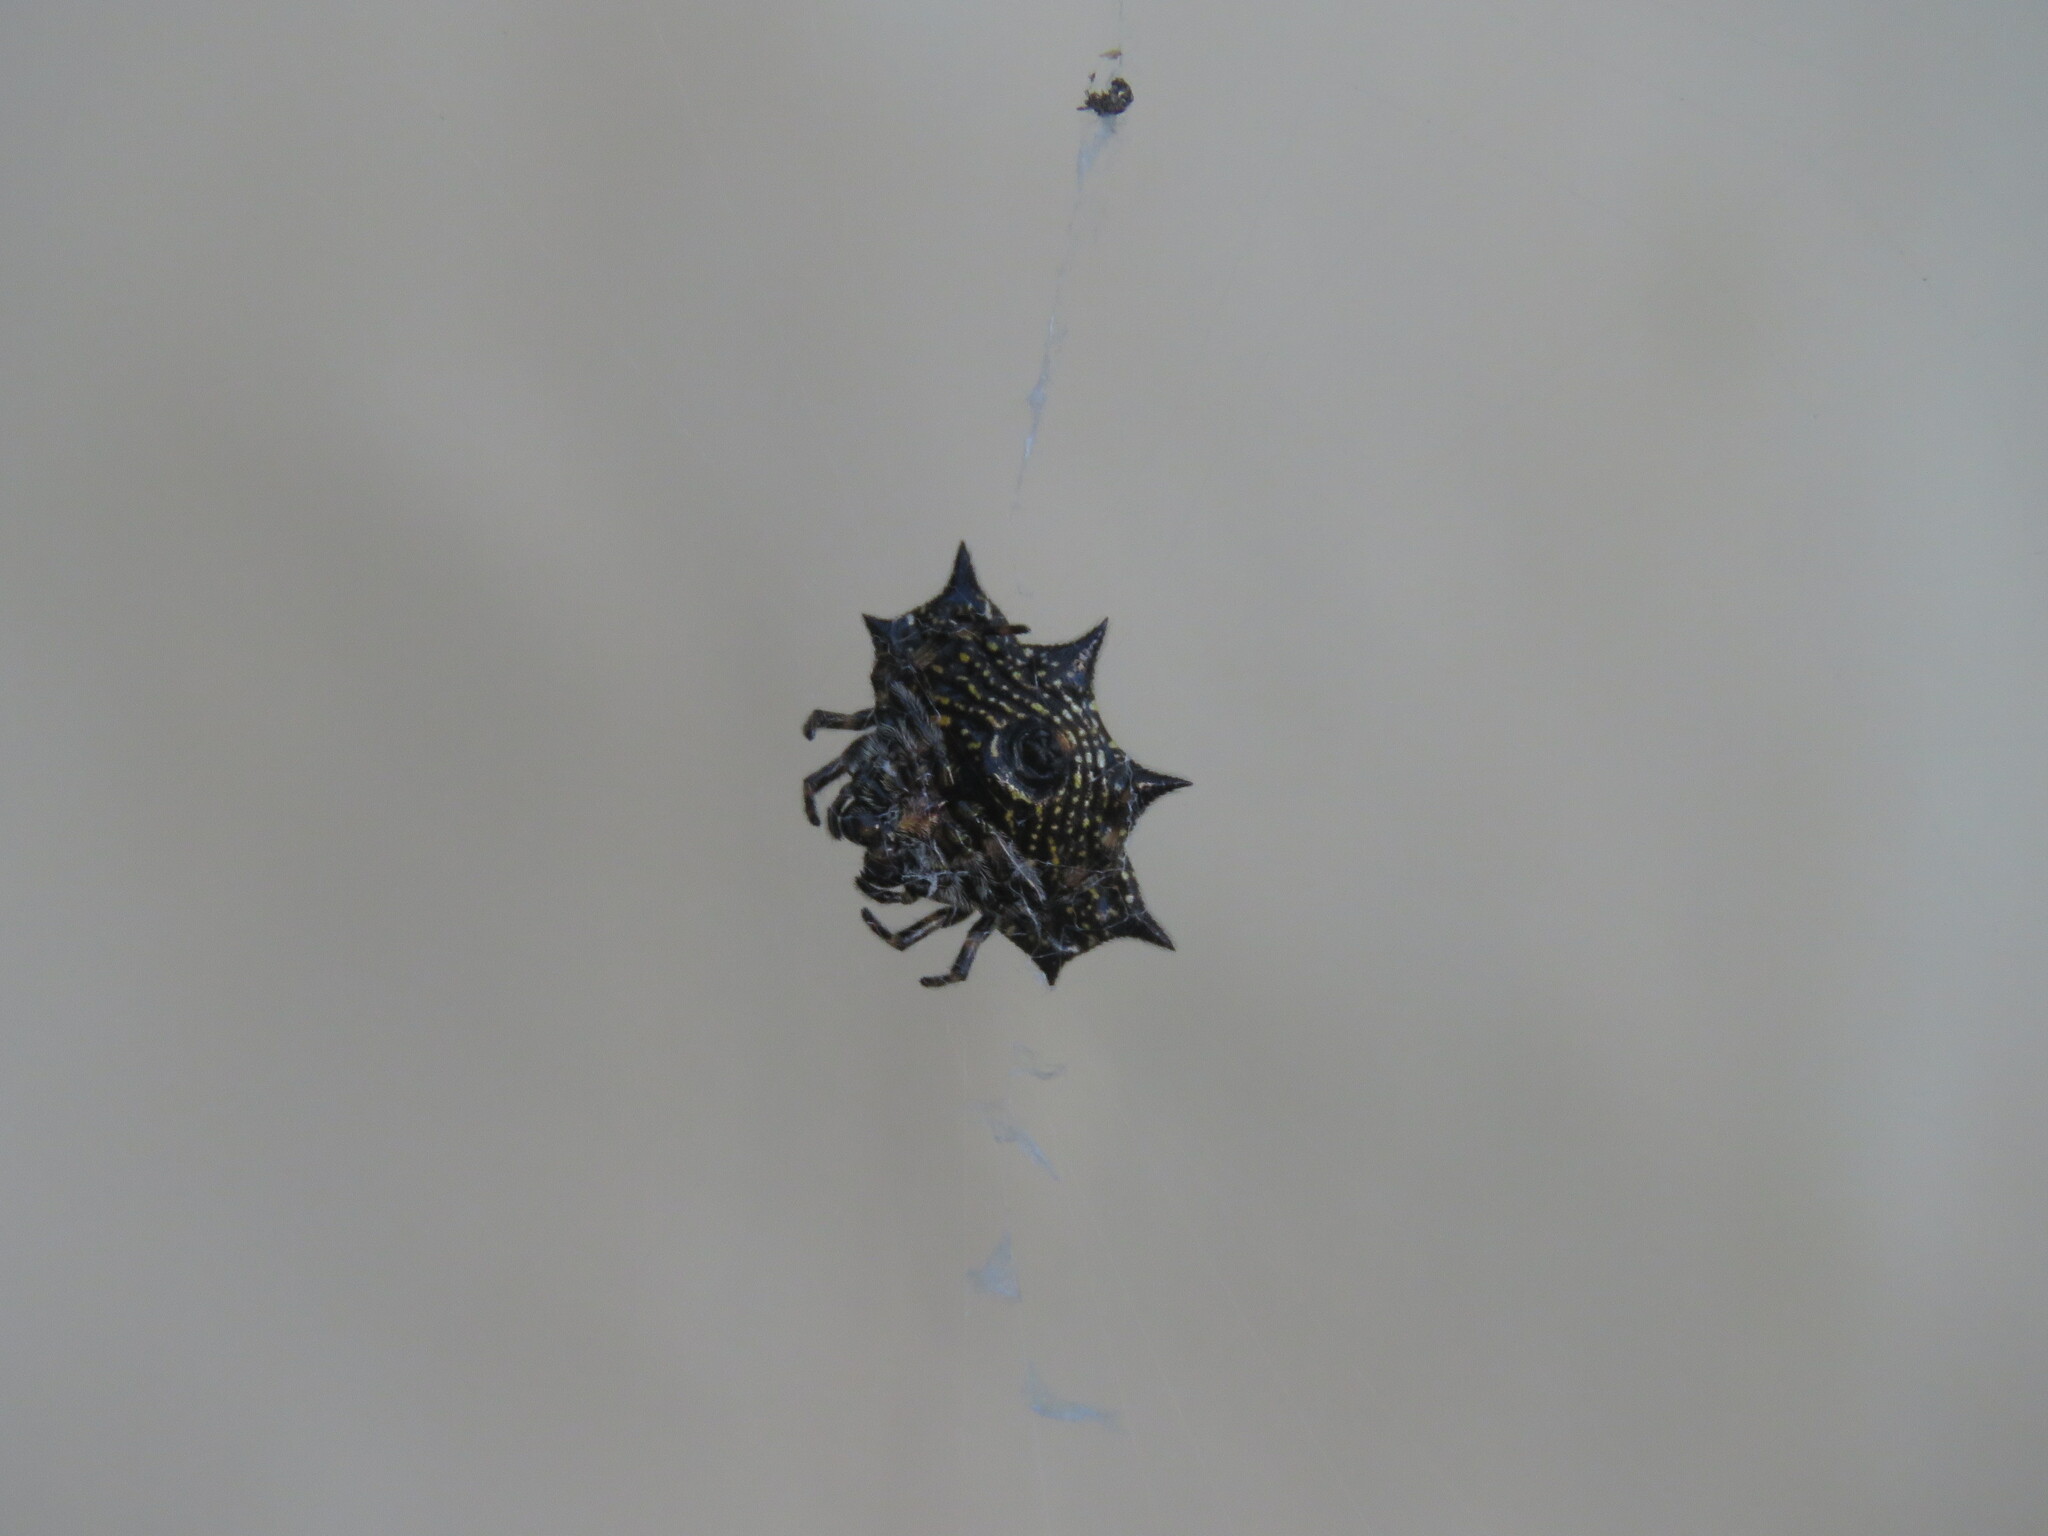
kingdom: Animalia
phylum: Arthropoda
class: Arachnida
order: Araneae
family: Araneidae
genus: Gasteracantha
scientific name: Gasteracantha cancriformis
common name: Orb weavers
